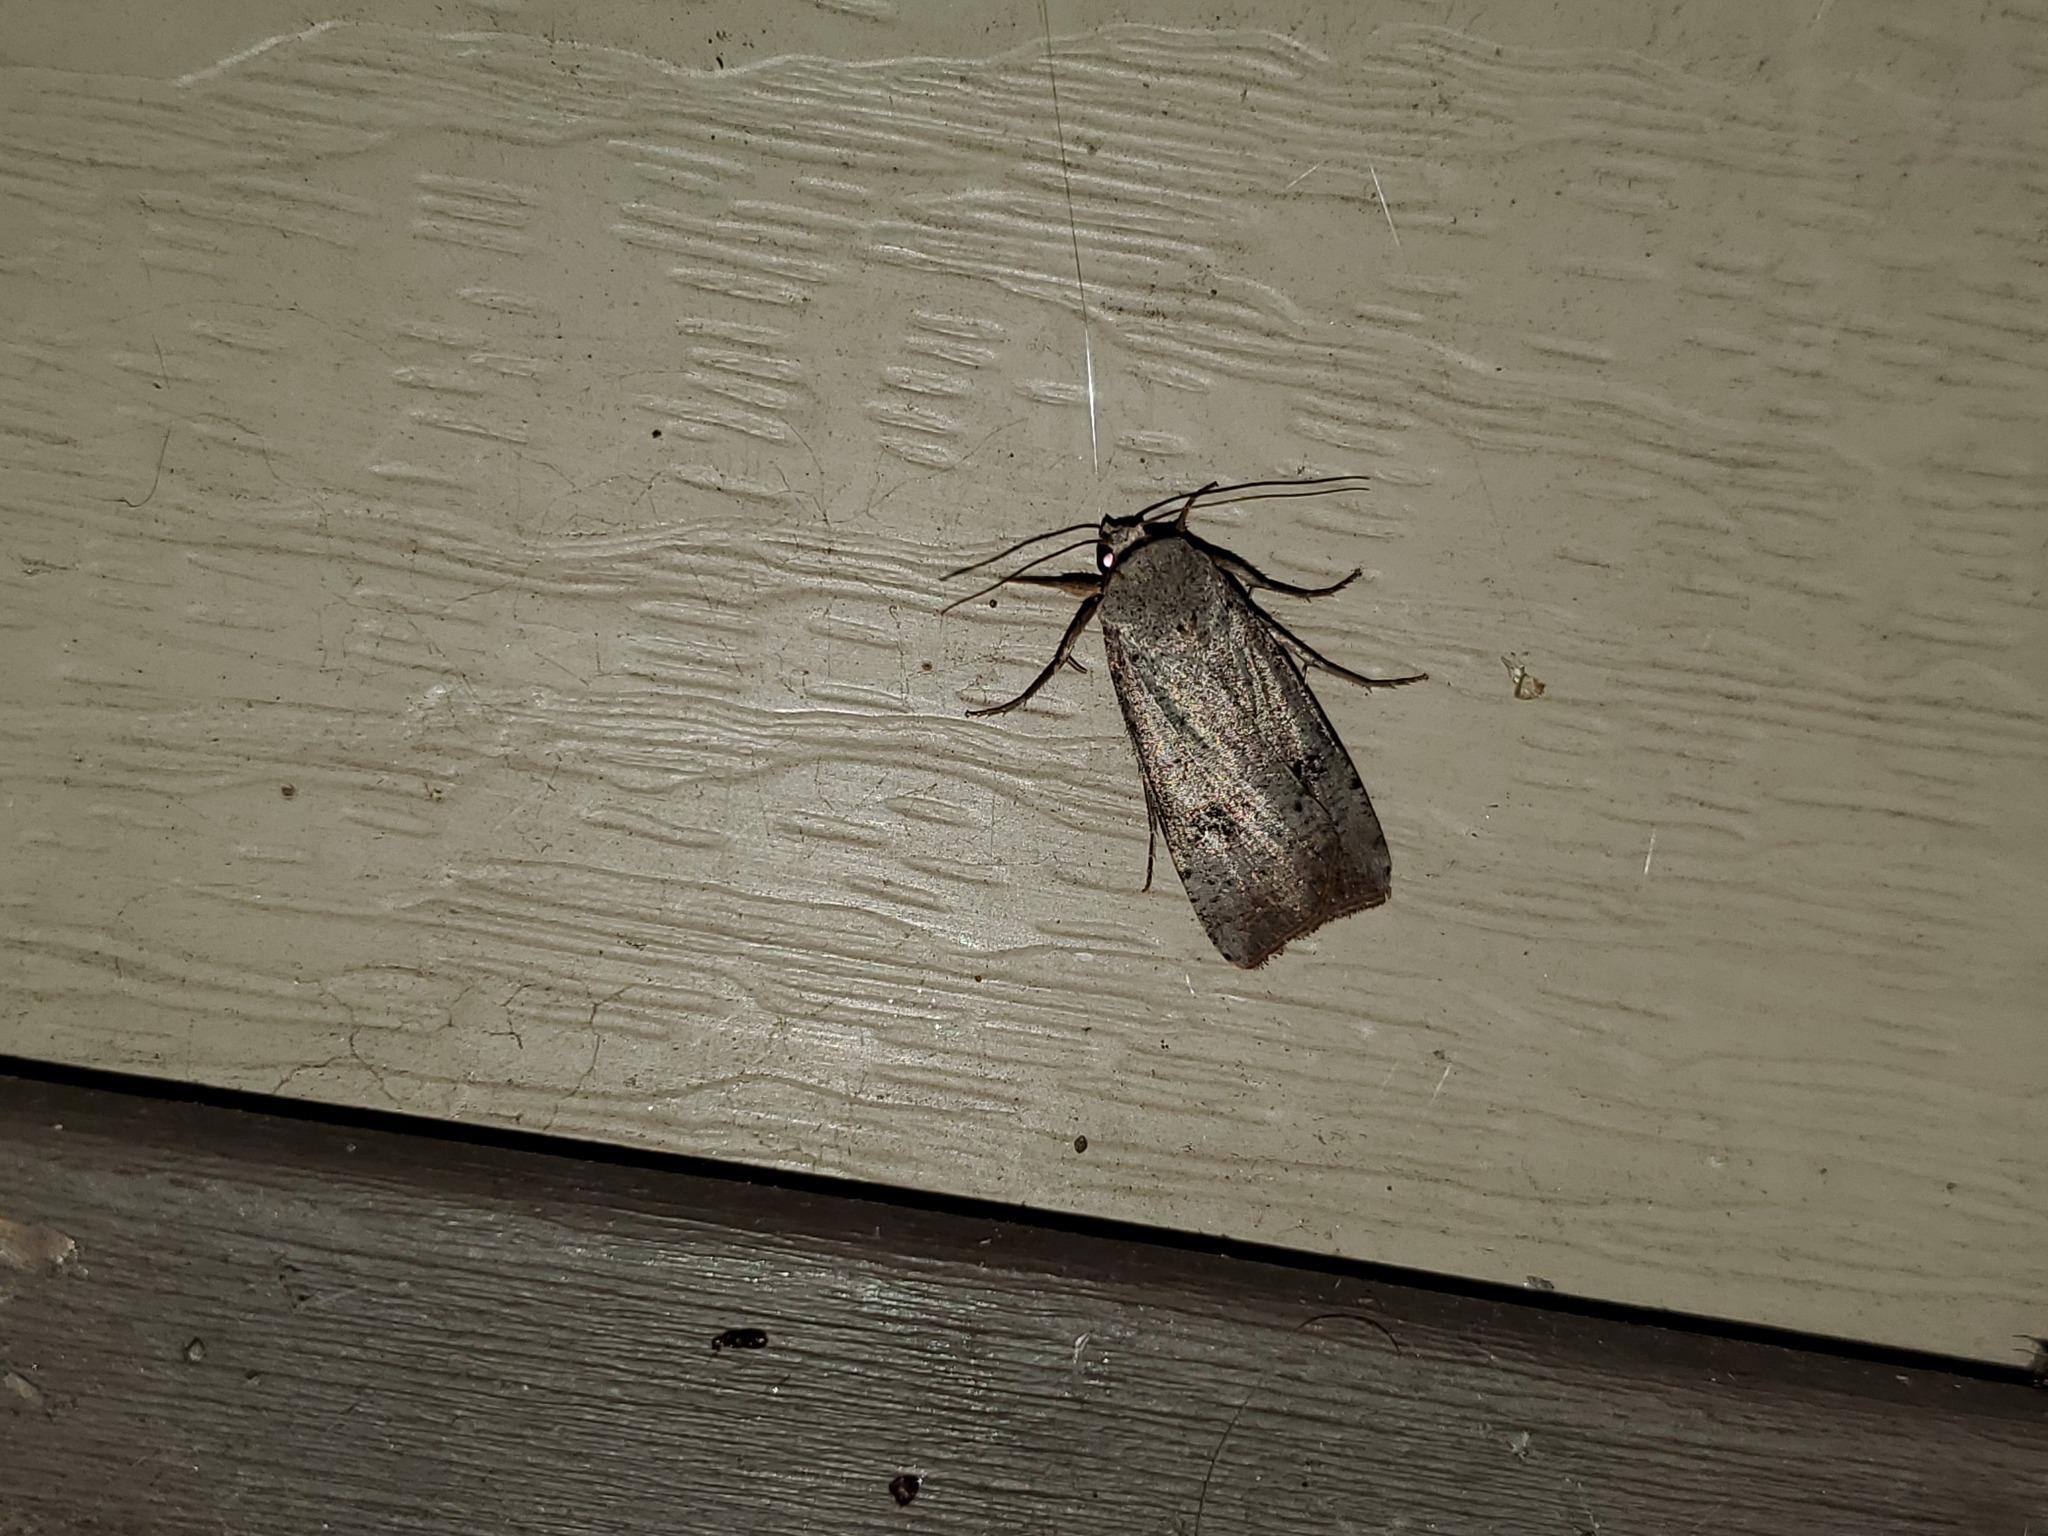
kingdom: Animalia
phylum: Arthropoda
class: Insecta
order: Lepidoptera
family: Noctuidae
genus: Anicla
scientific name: Anicla infecta
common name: Green cutworm
